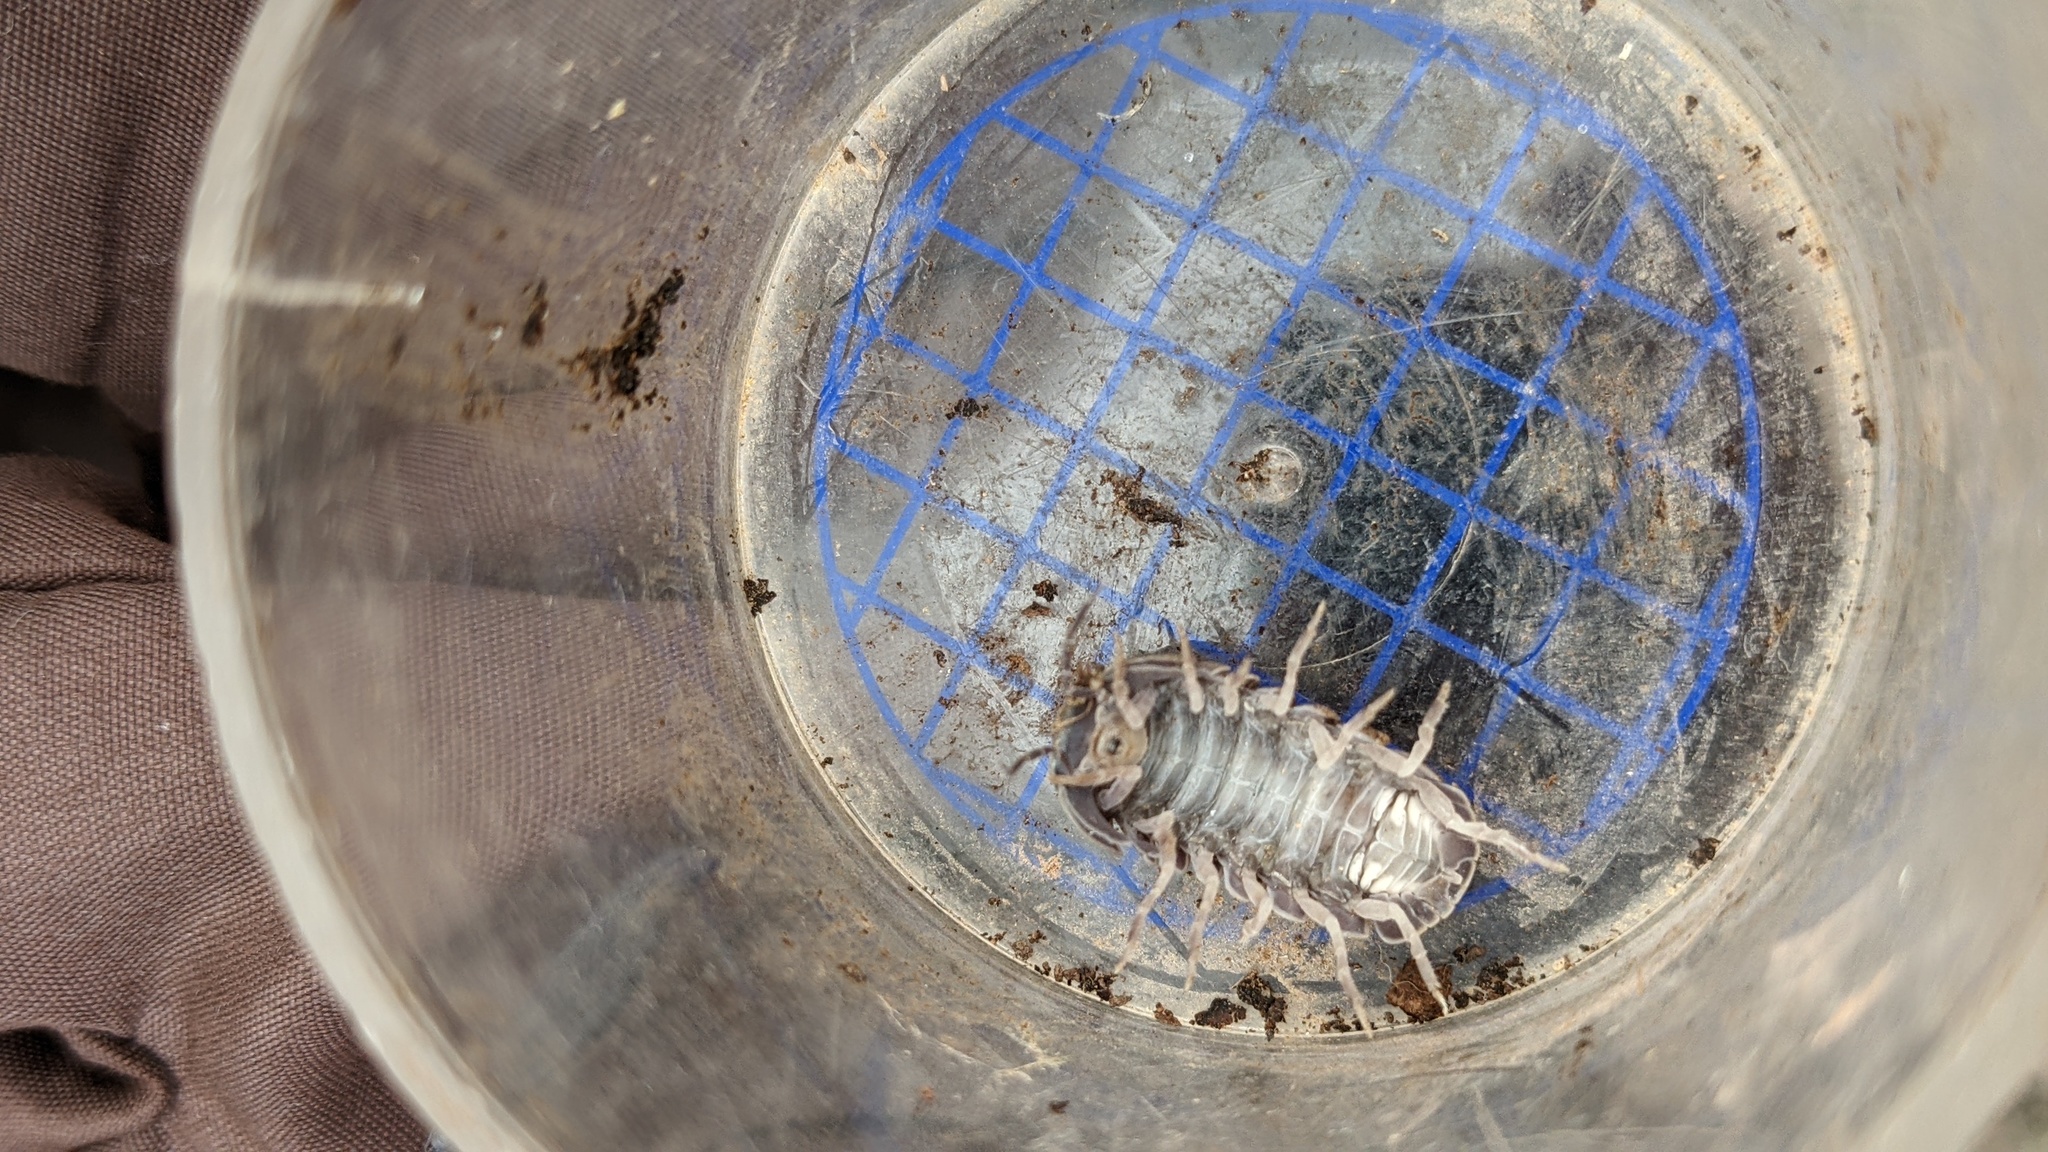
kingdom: Animalia
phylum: Arthropoda
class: Malacostraca
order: Isopoda
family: Armadillidae
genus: Armadillo
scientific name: Armadillo officinalis
